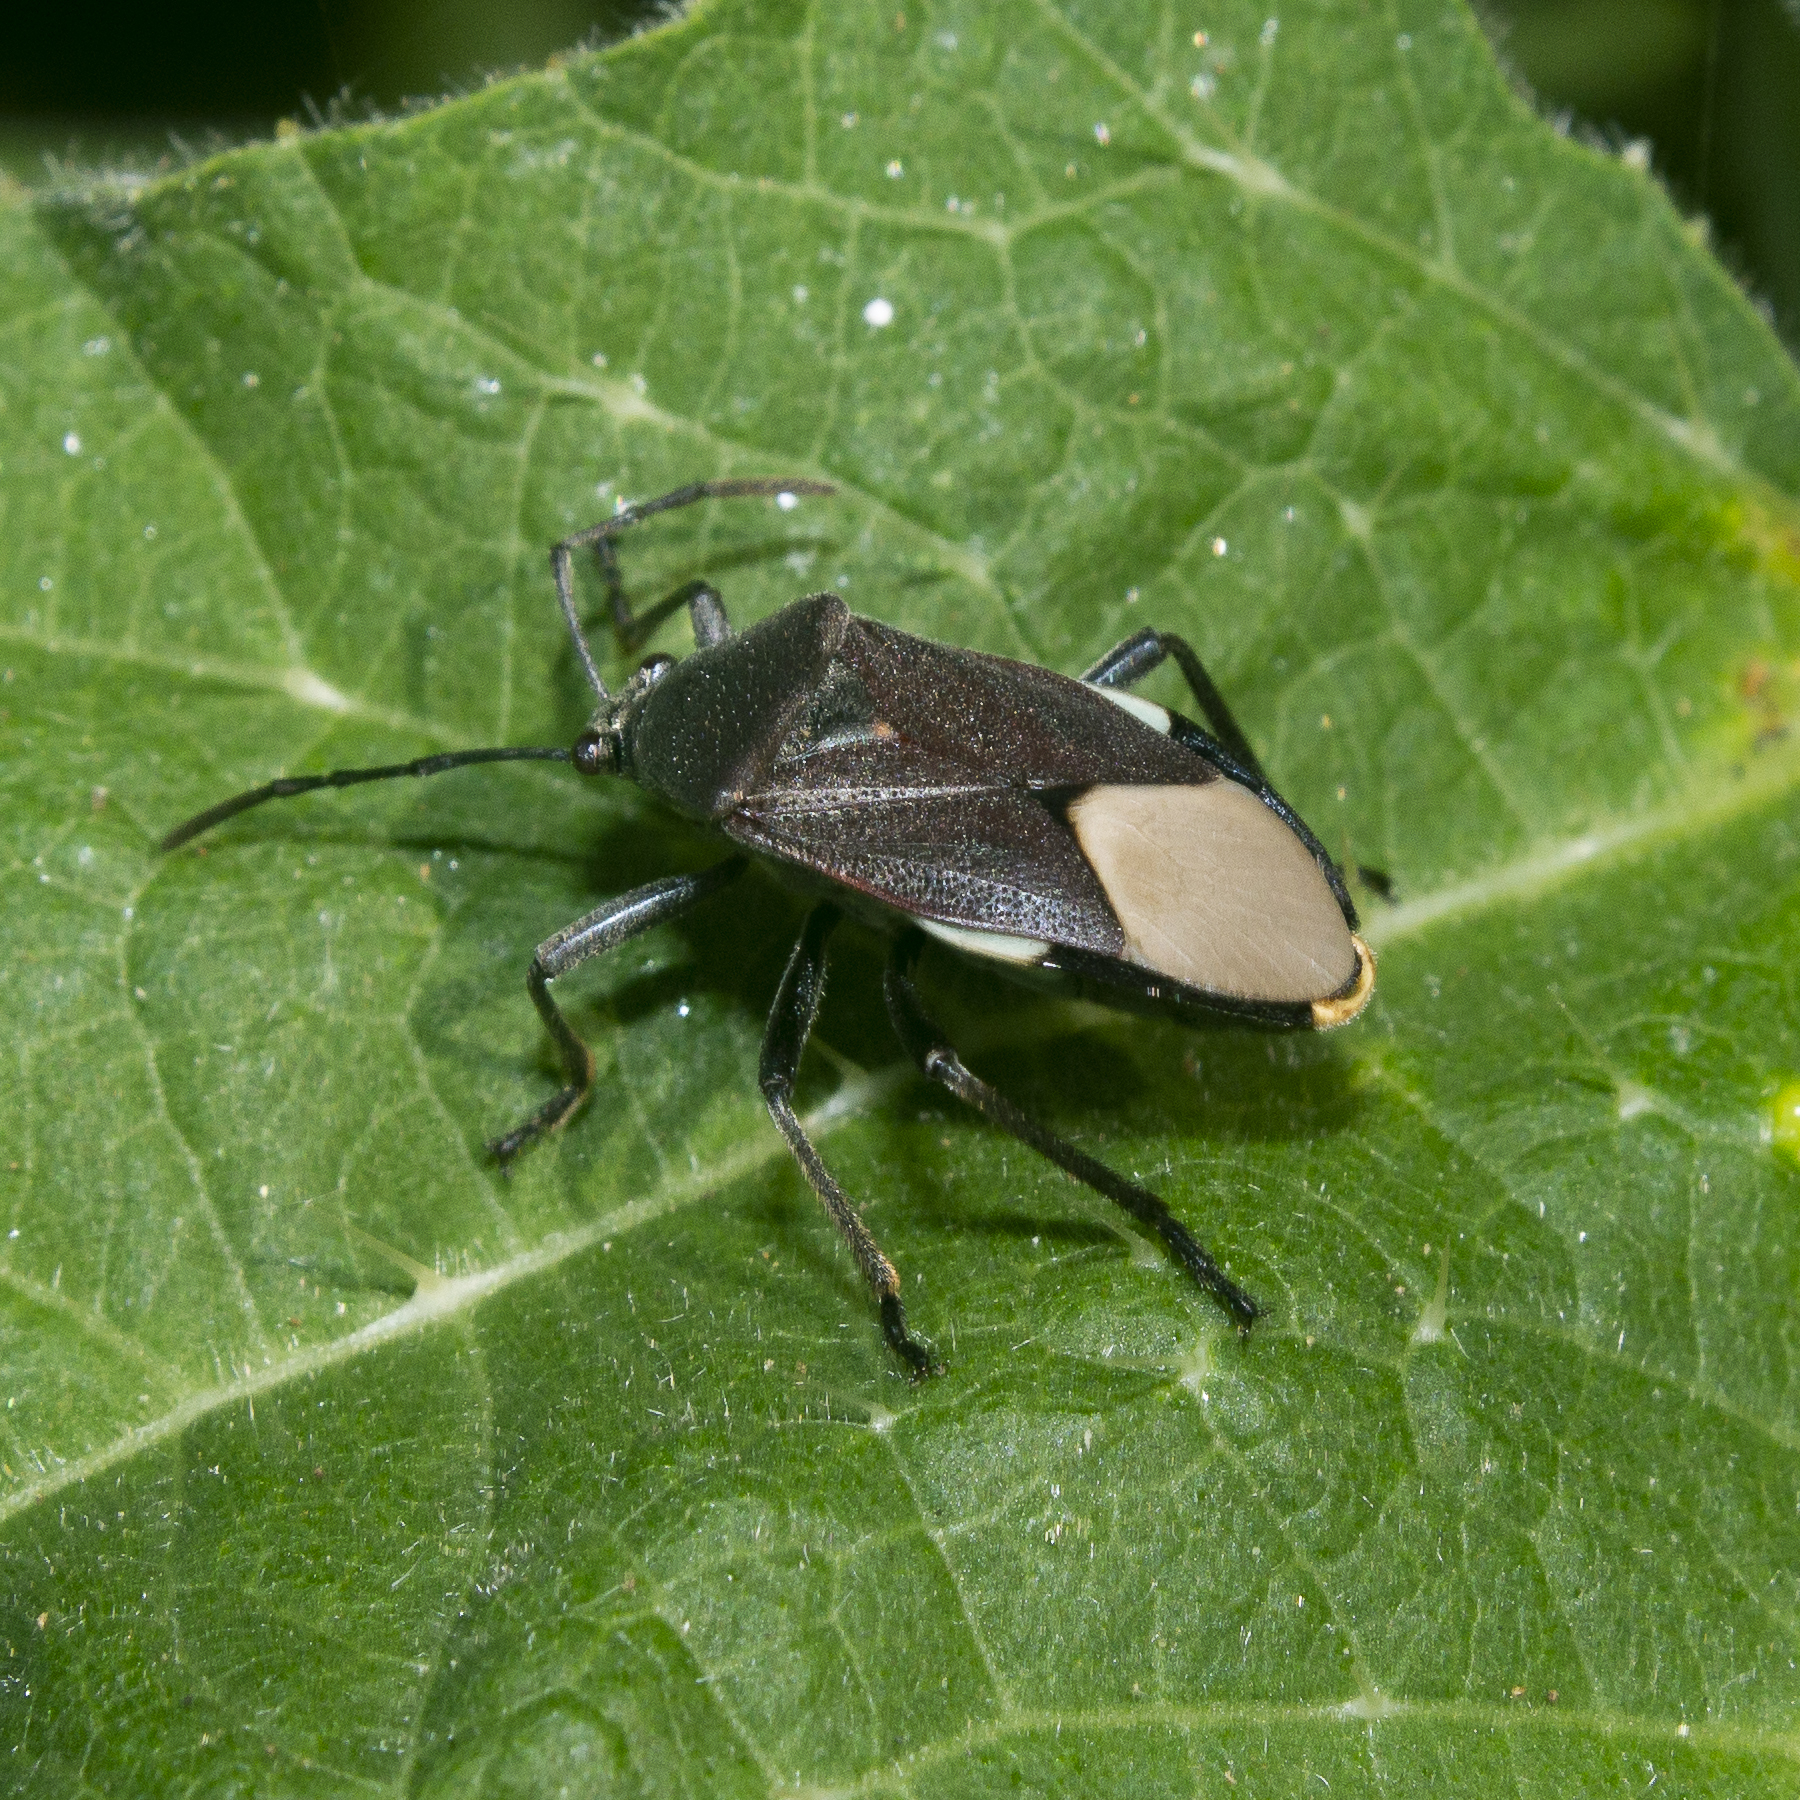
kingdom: Animalia
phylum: Arthropoda
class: Insecta
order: Hemiptera
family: Largidae
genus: Largus
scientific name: Largus tristis
